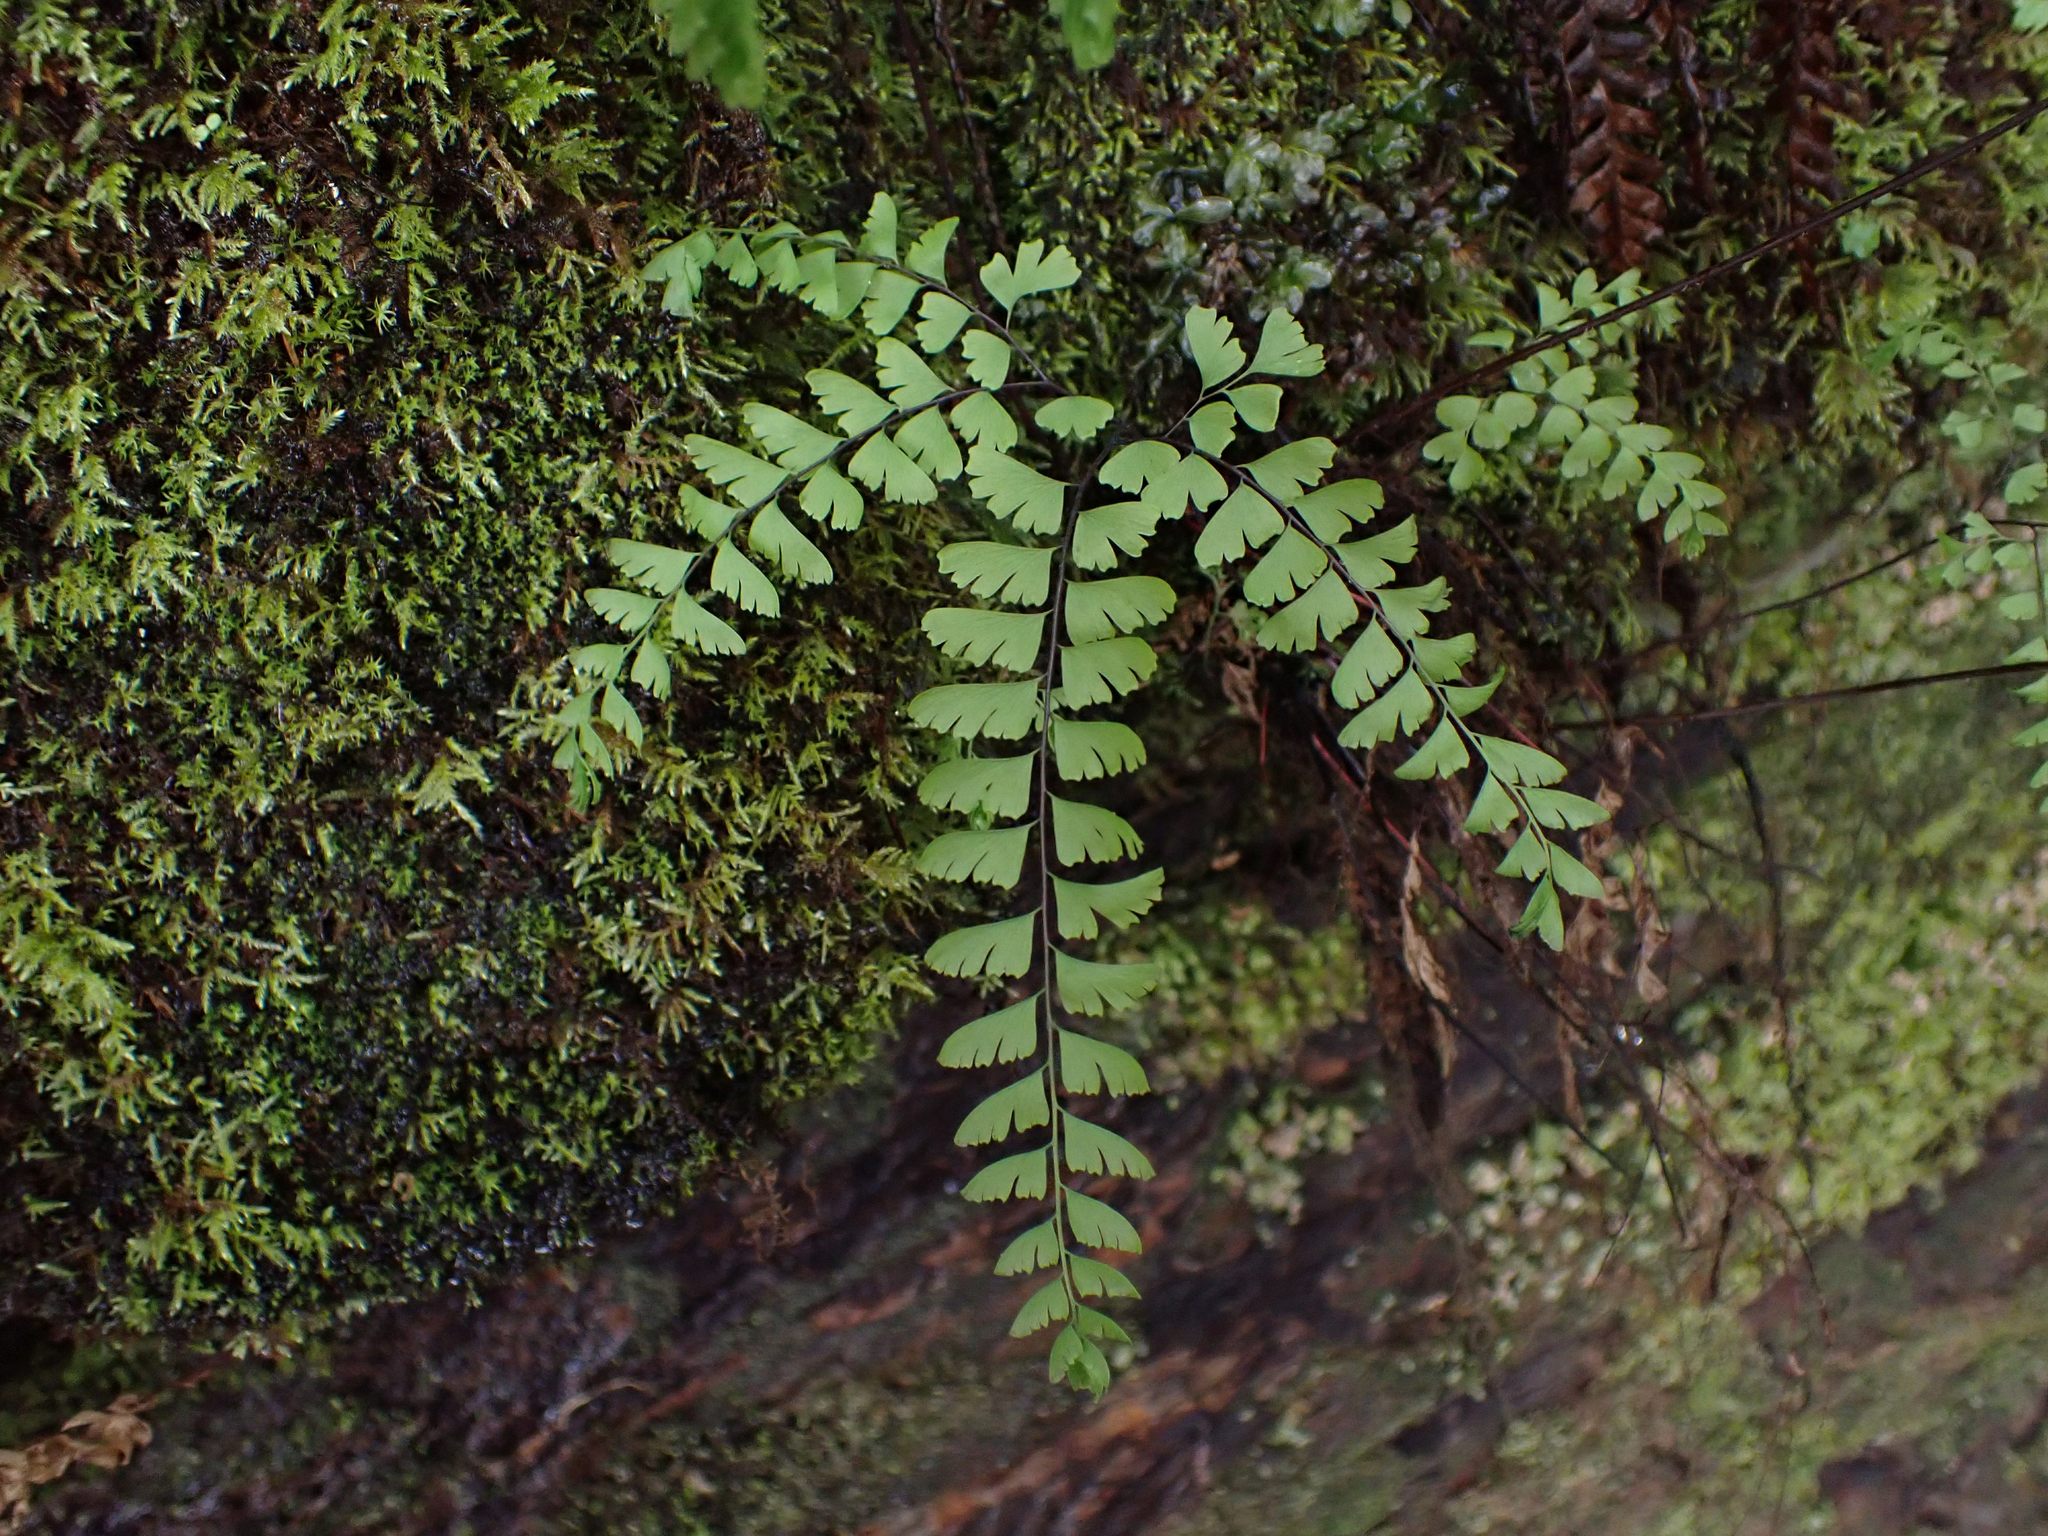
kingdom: Plantae
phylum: Tracheophyta
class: Polypodiopsida
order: Polypodiales
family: Pteridaceae
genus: Adiantum
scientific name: Adiantum aleuticum
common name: Aleutian maidenhair fern
